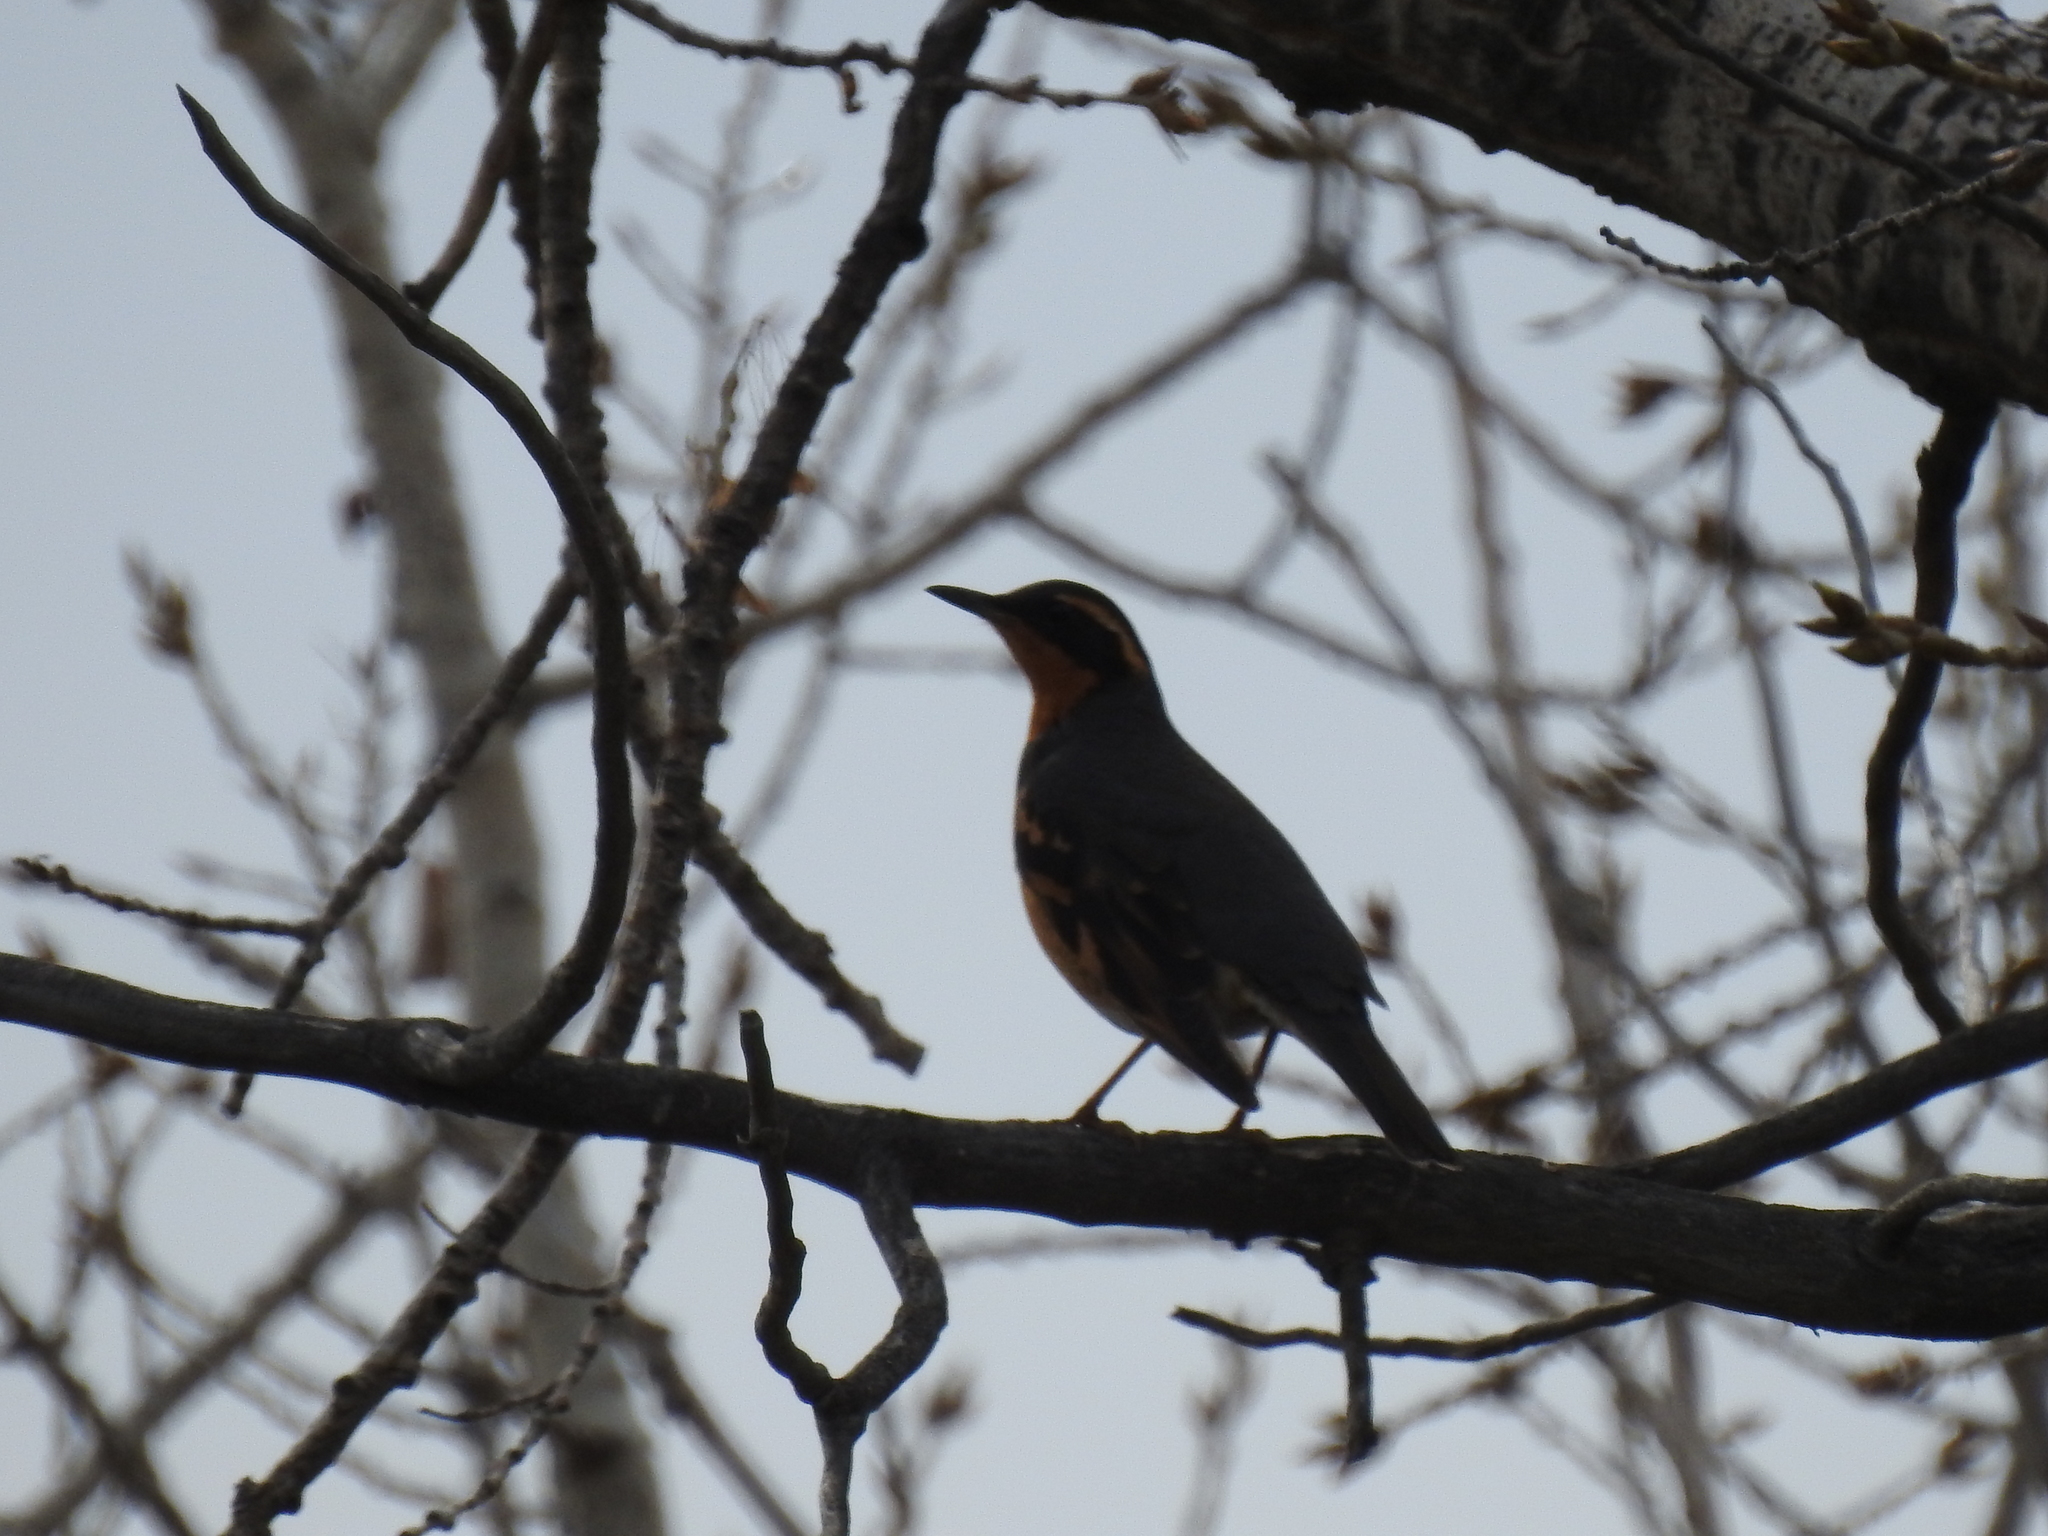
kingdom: Animalia
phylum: Chordata
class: Aves
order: Passeriformes
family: Turdidae
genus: Ixoreus
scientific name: Ixoreus naevius
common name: Varied thrush
